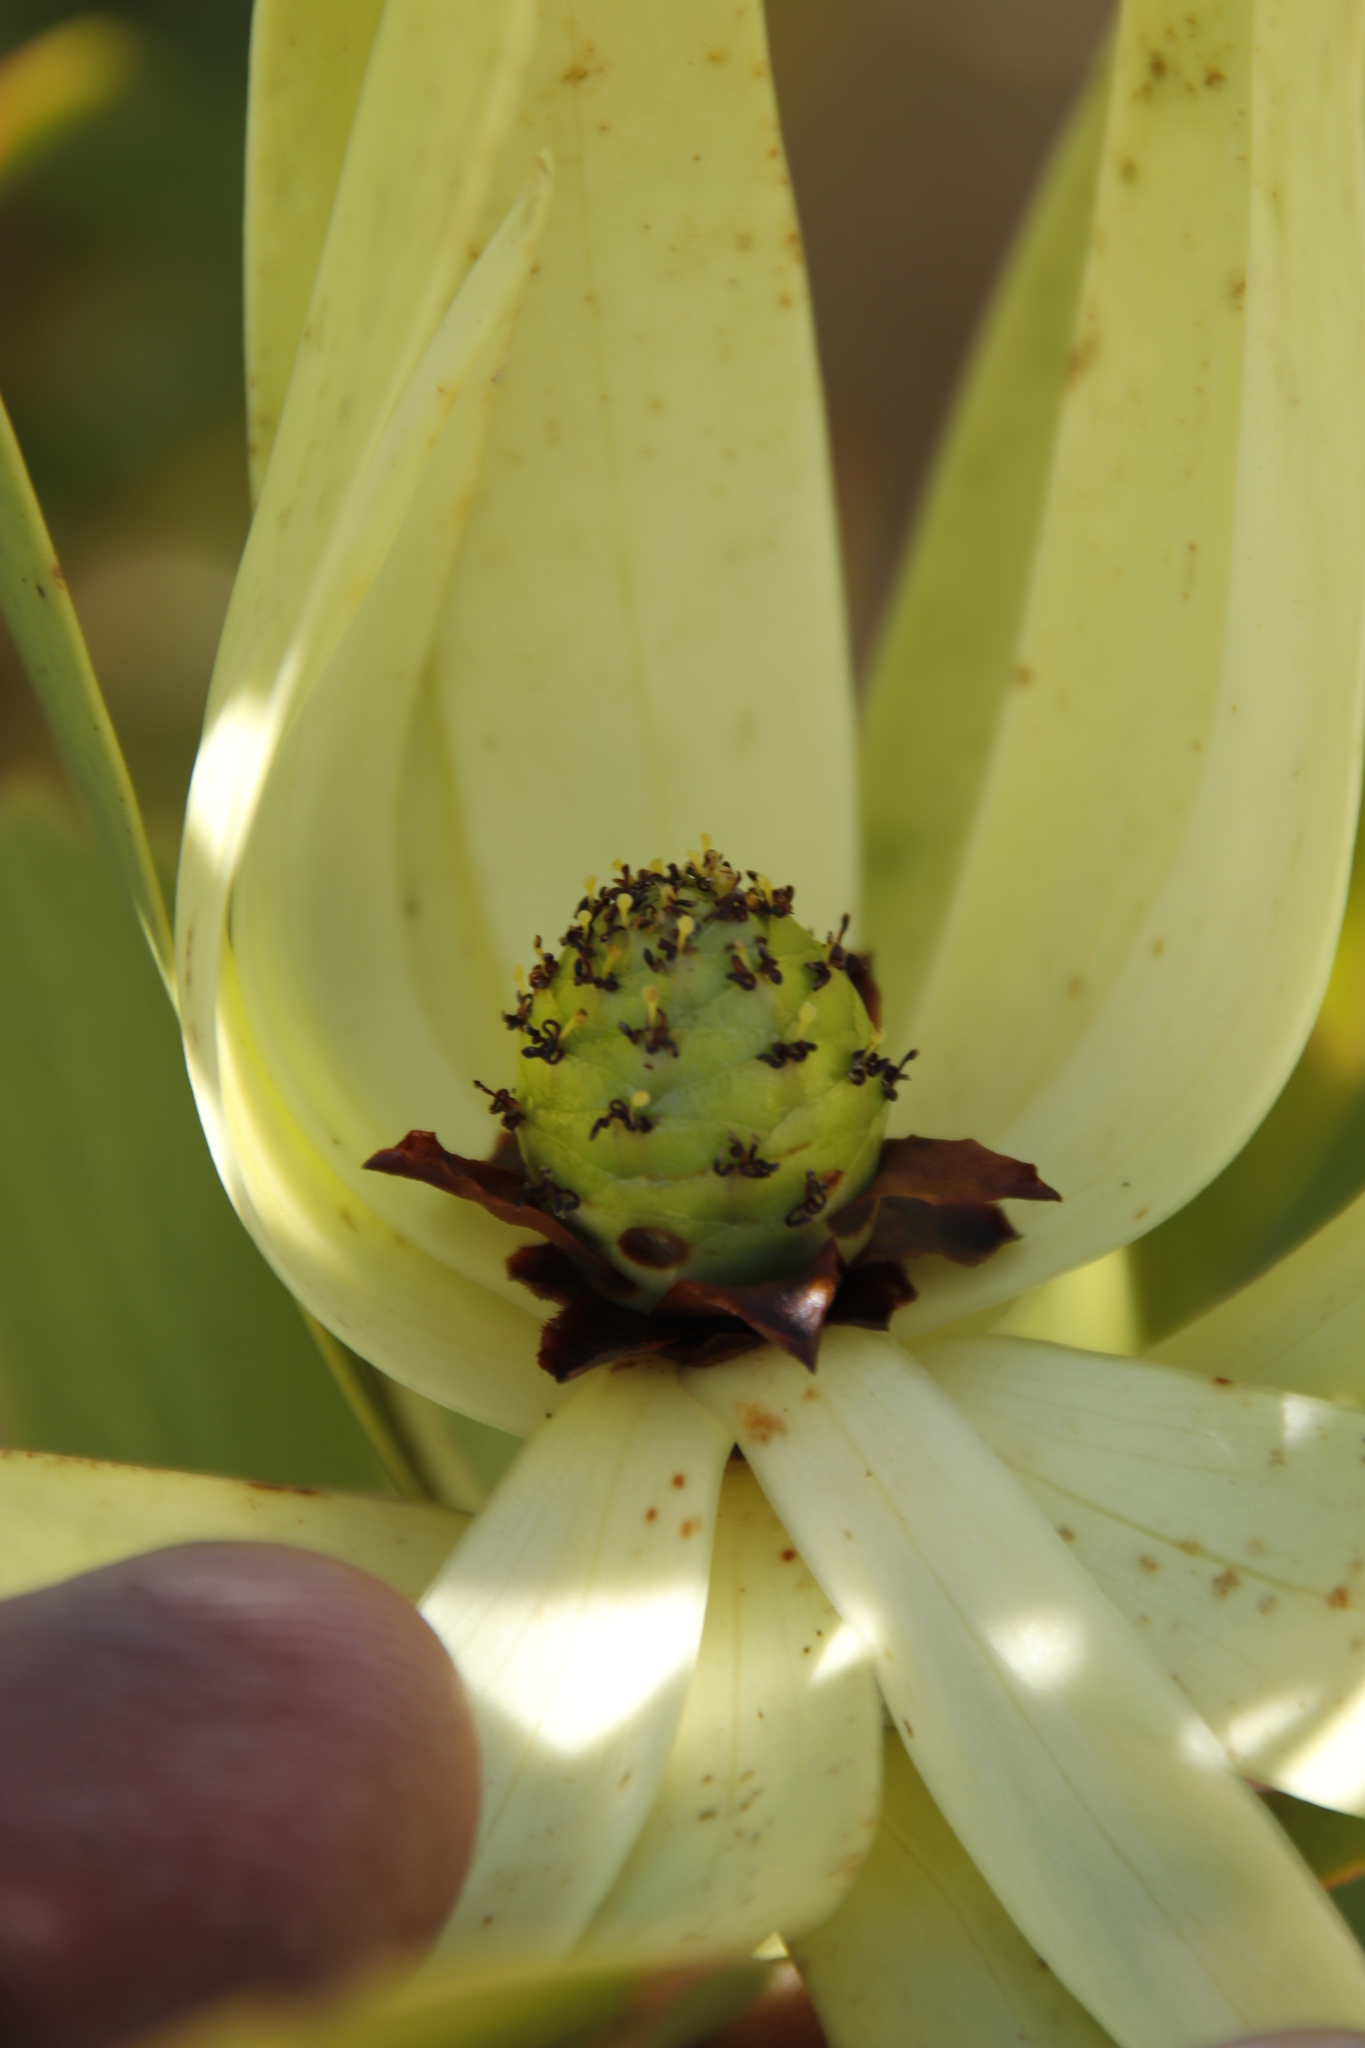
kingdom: Plantae
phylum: Tracheophyta
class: Magnoliopsida
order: Proteales
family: Proteaceae
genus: Leucadendron
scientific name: Leucadendron microcephalum
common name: Oilbract conebush
